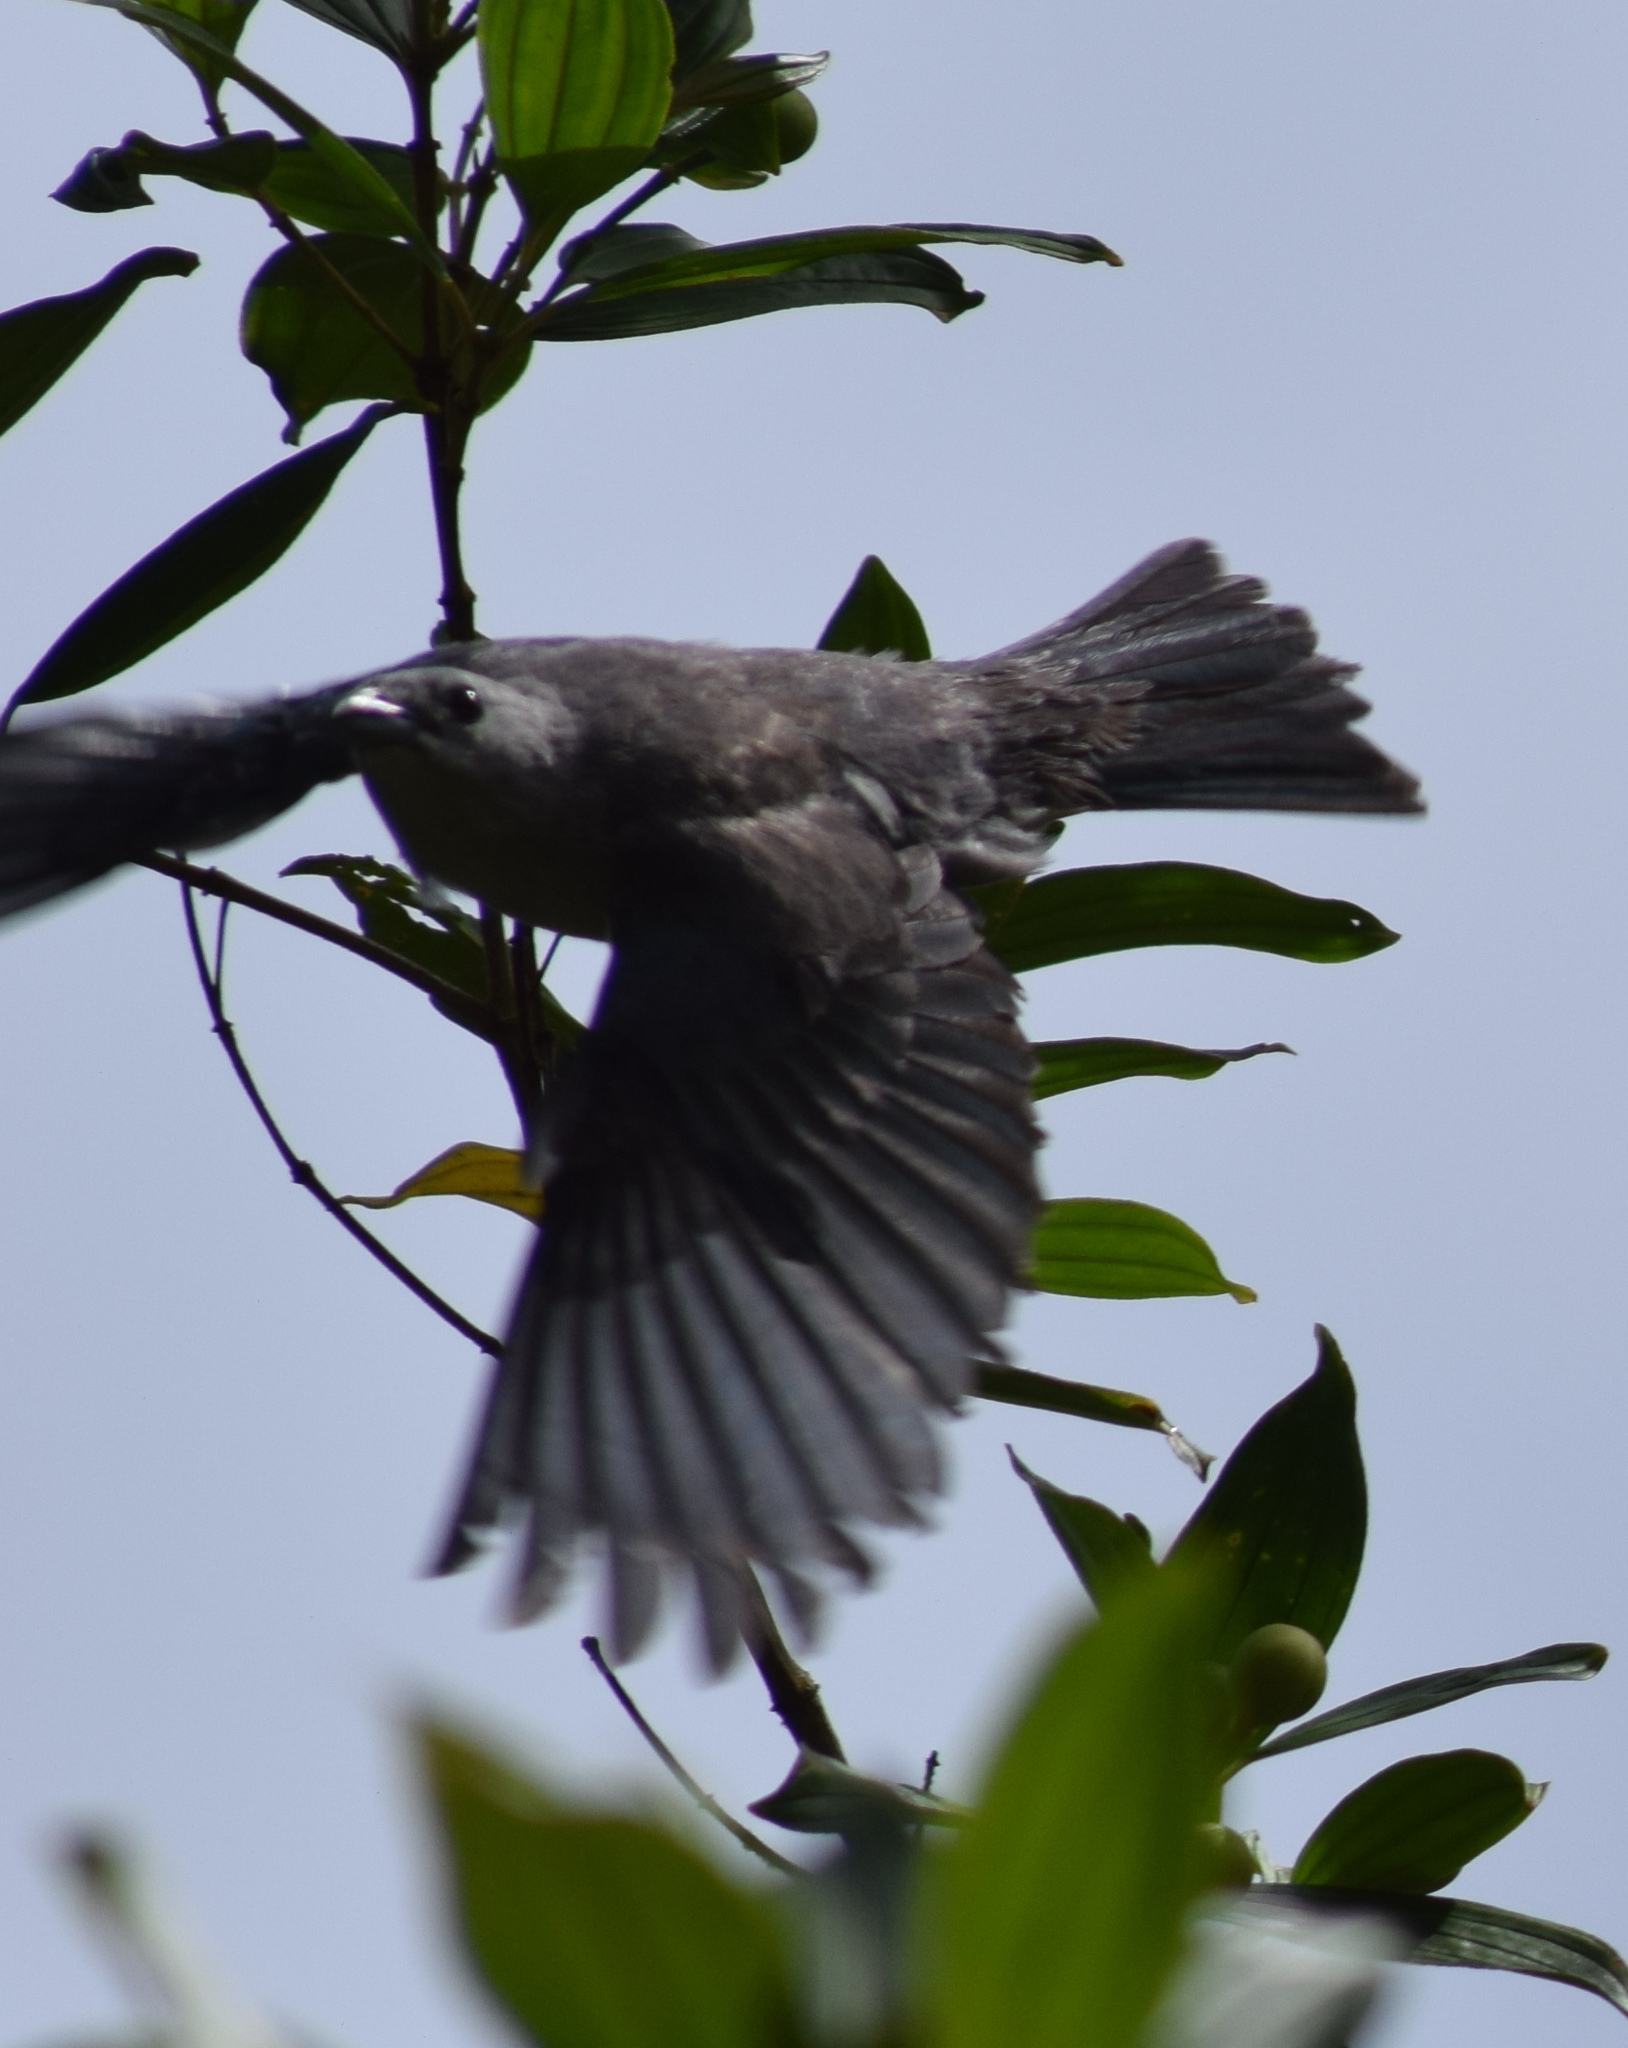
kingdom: Animalia
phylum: Chordata
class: Aves
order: Passeriformes
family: Thraupidae
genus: Thraupis
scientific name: Thraupis sayaca
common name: Sayaca tanager
